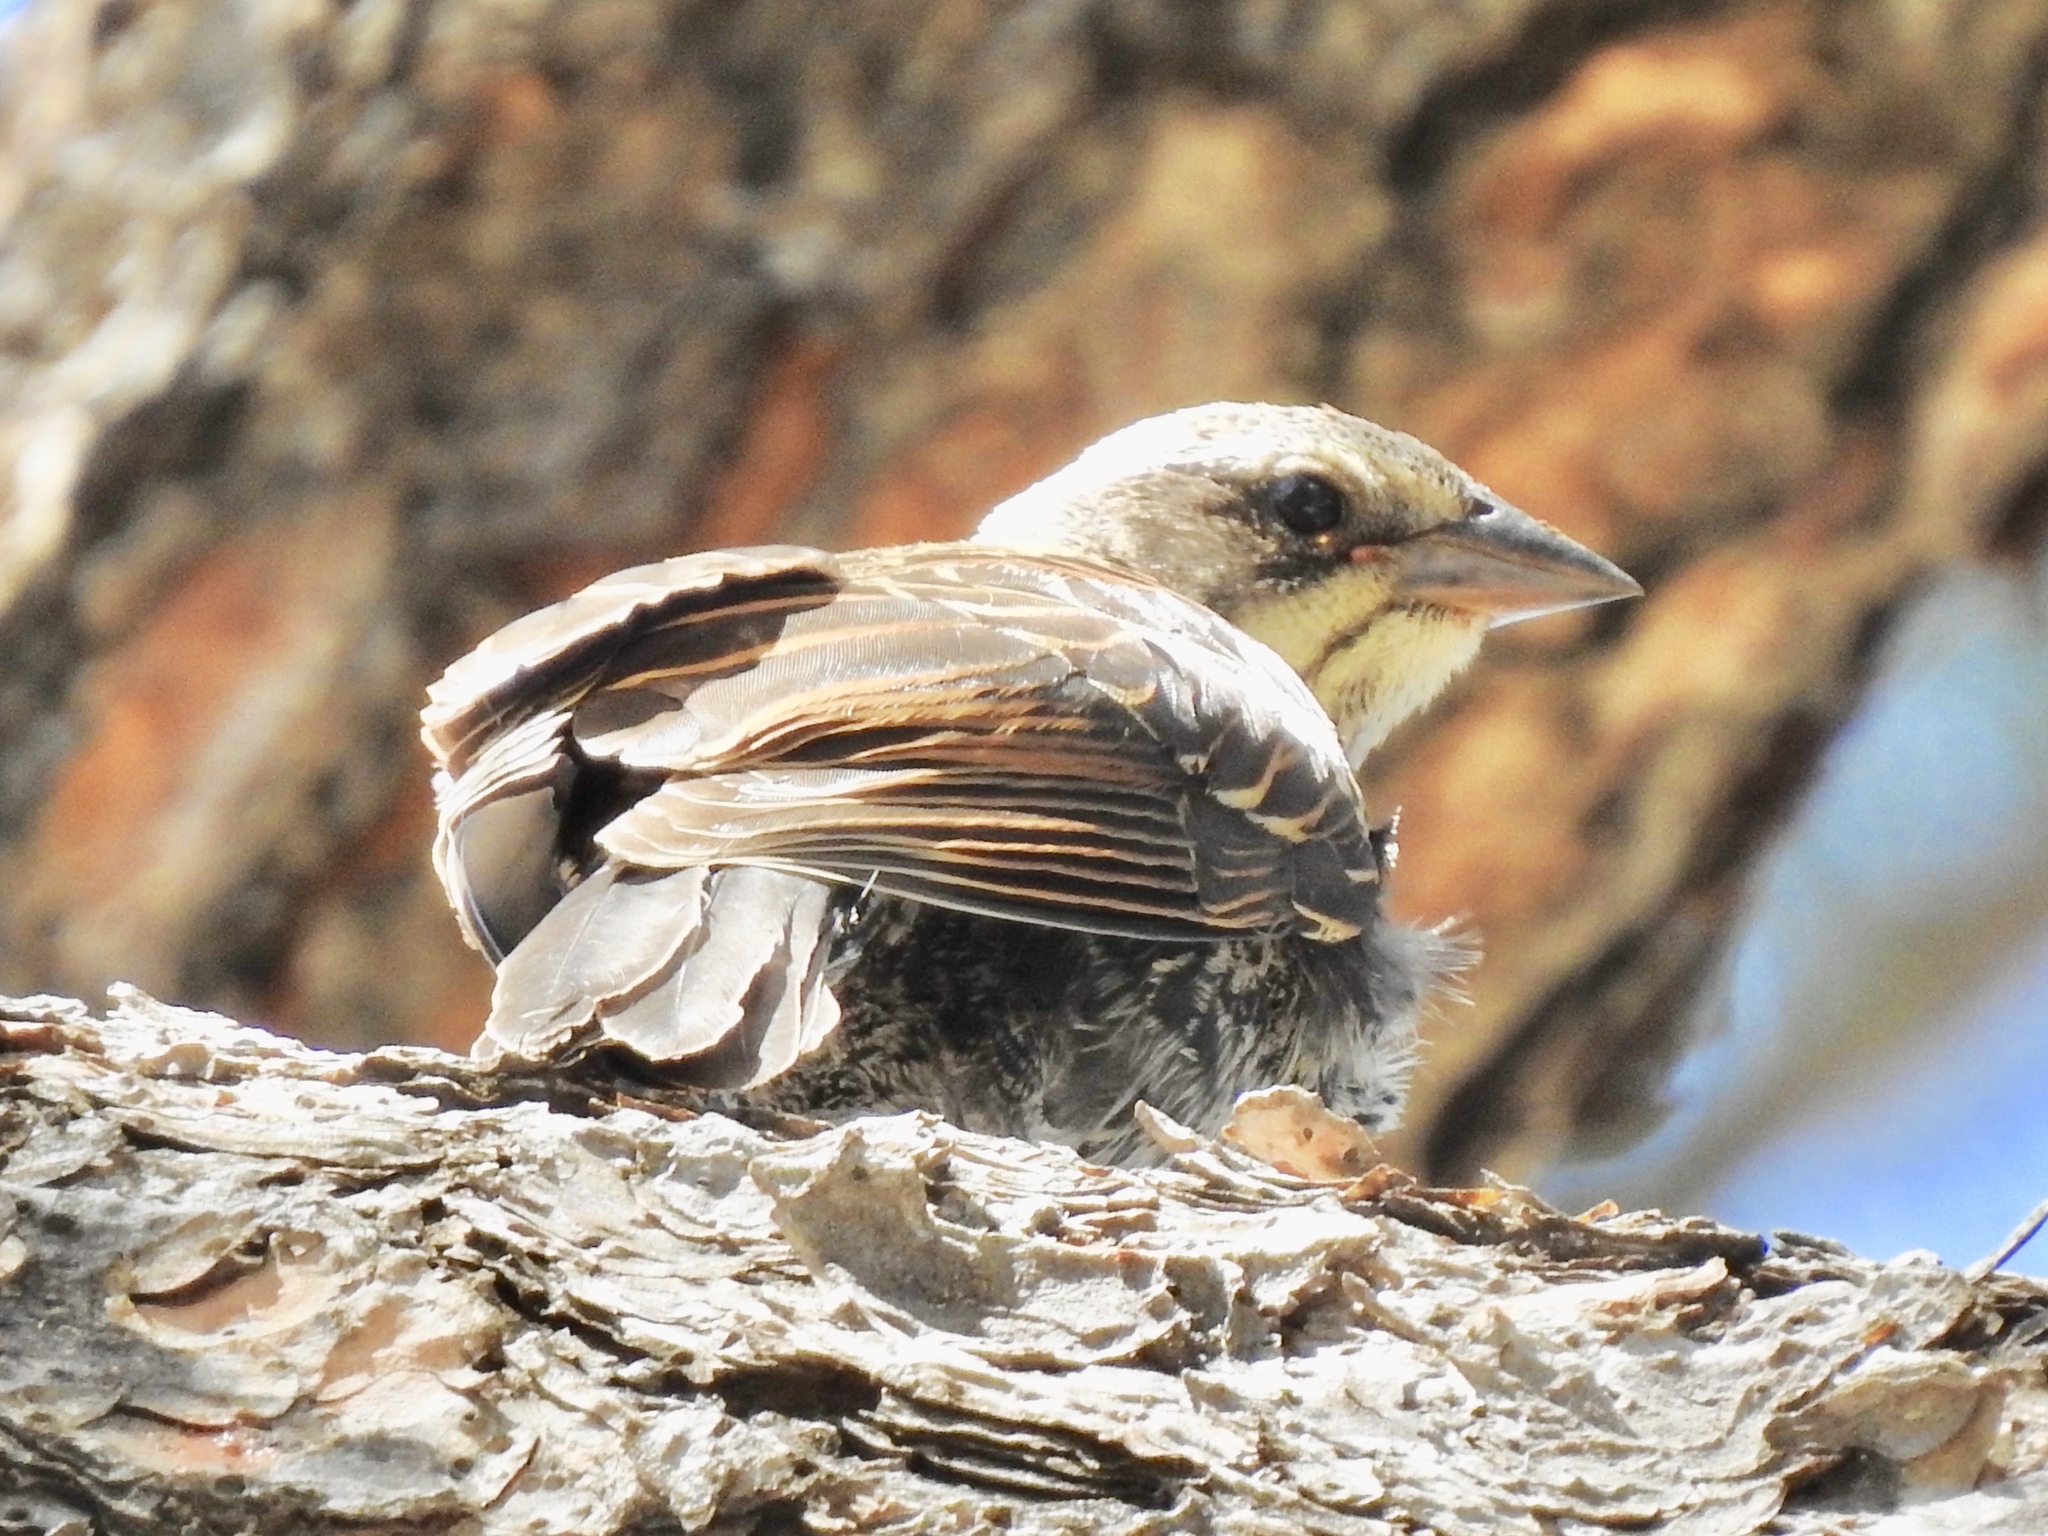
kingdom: Animalia
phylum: Chordata
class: Aves
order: Passeriformes
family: Icteridae
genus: Molothrus
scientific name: Molothrus ater
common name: Brown-headed cowbird
